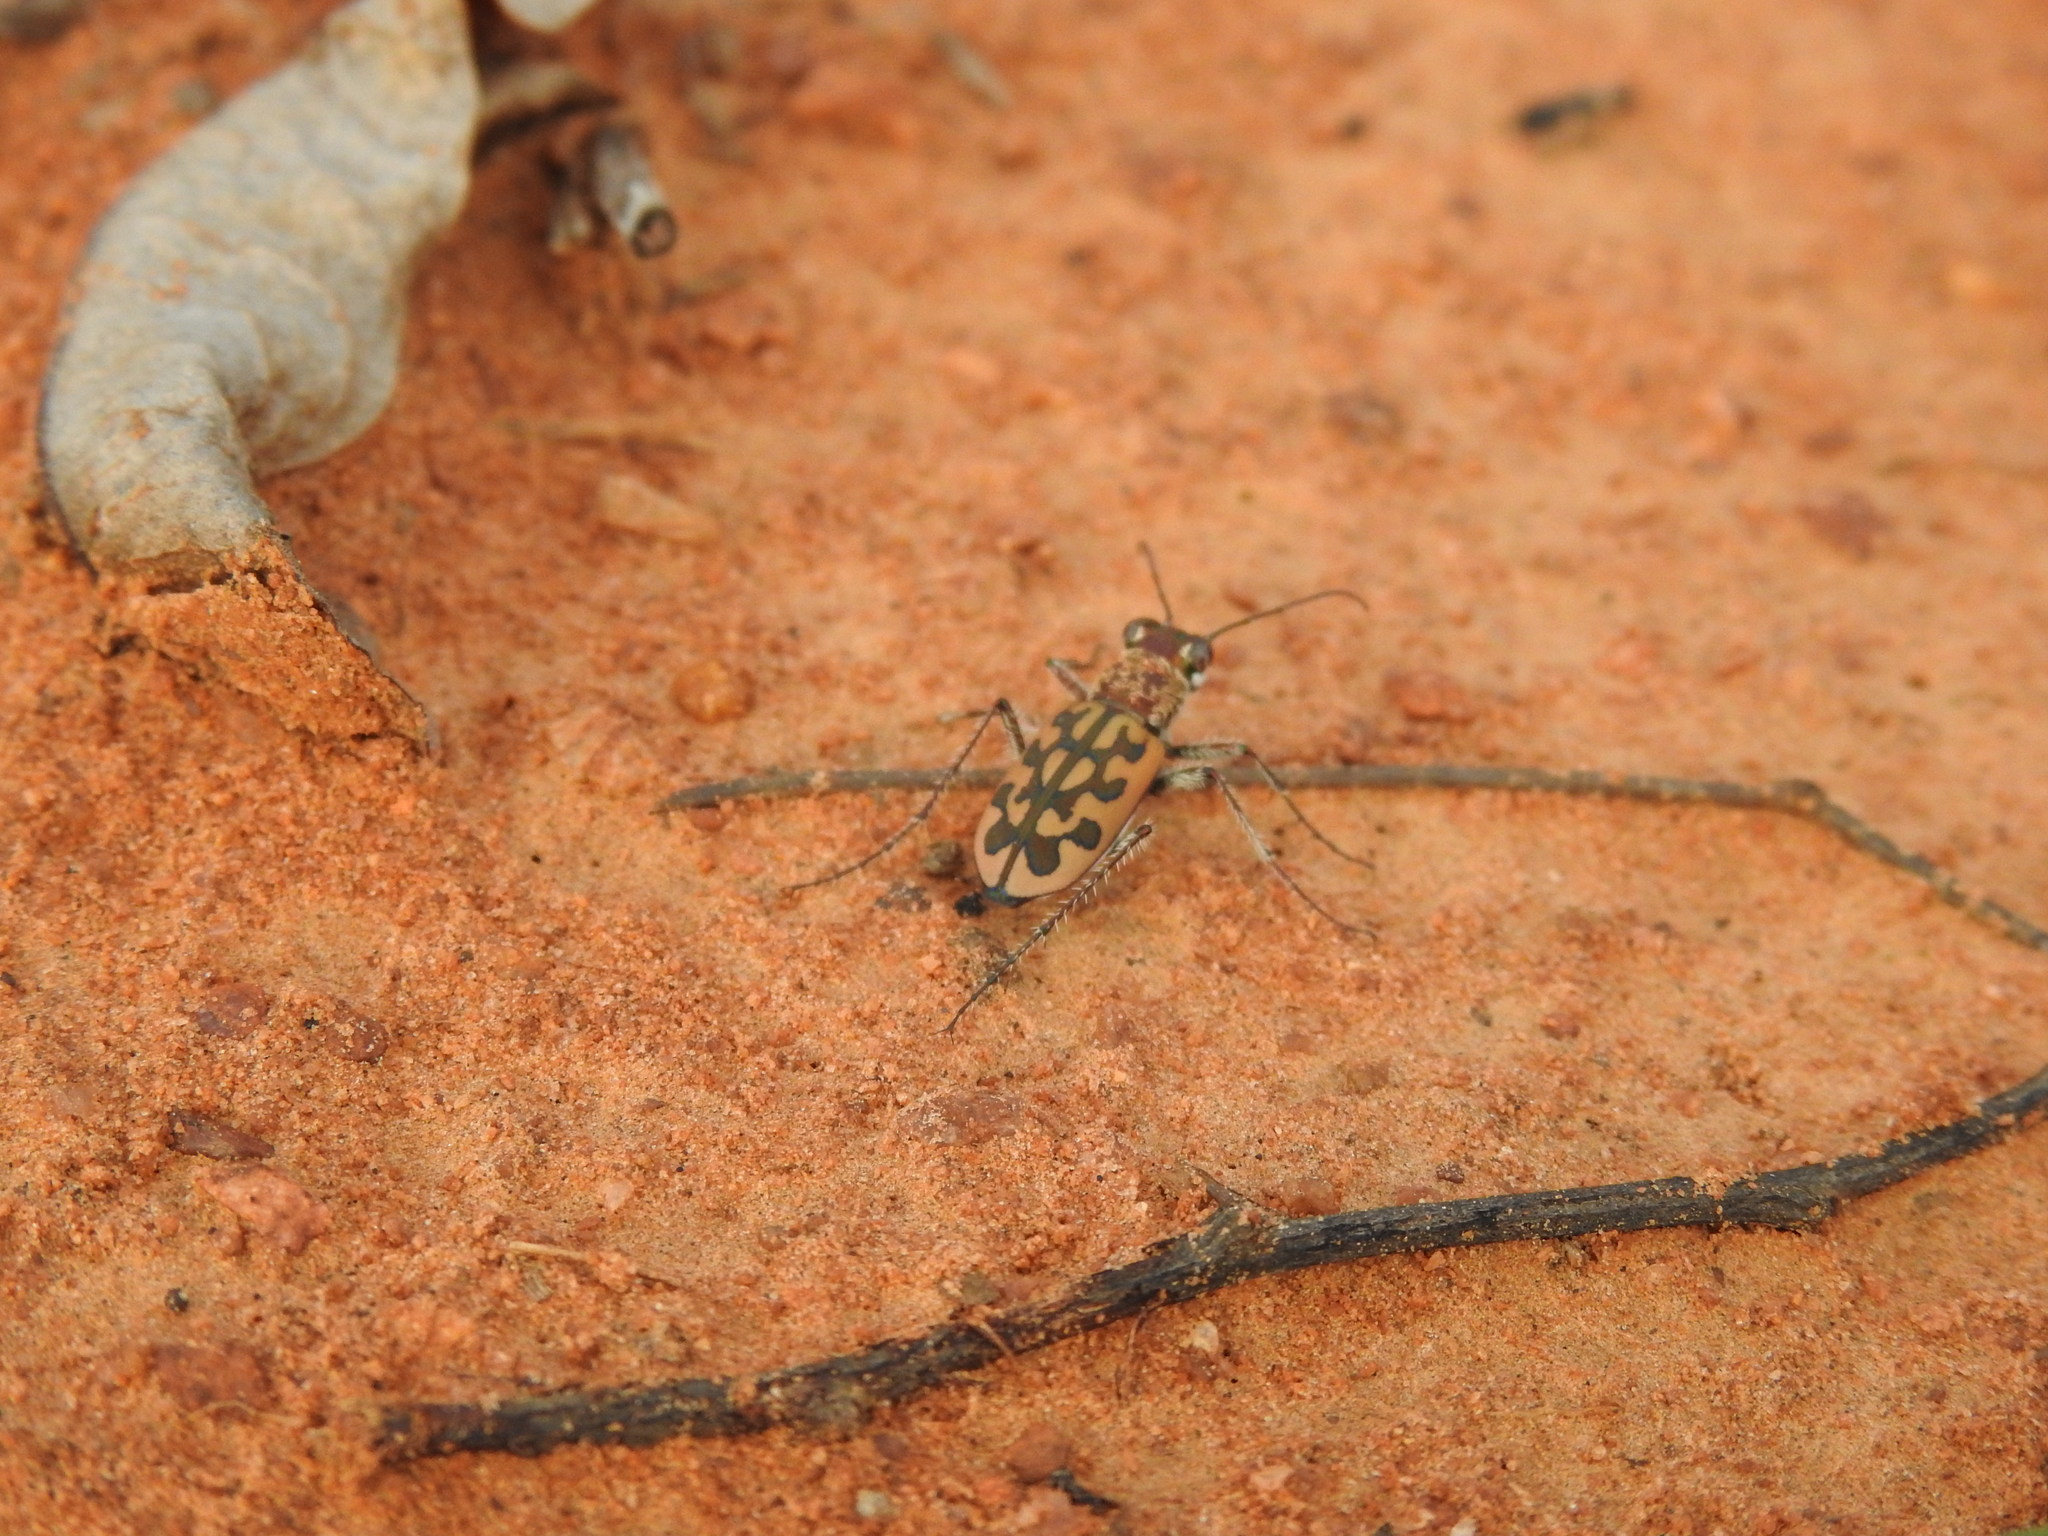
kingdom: Animalia
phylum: Arthropoda
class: Insecta
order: Coleoptera
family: Carabidae
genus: Lophyra
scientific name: Lophyra catena
